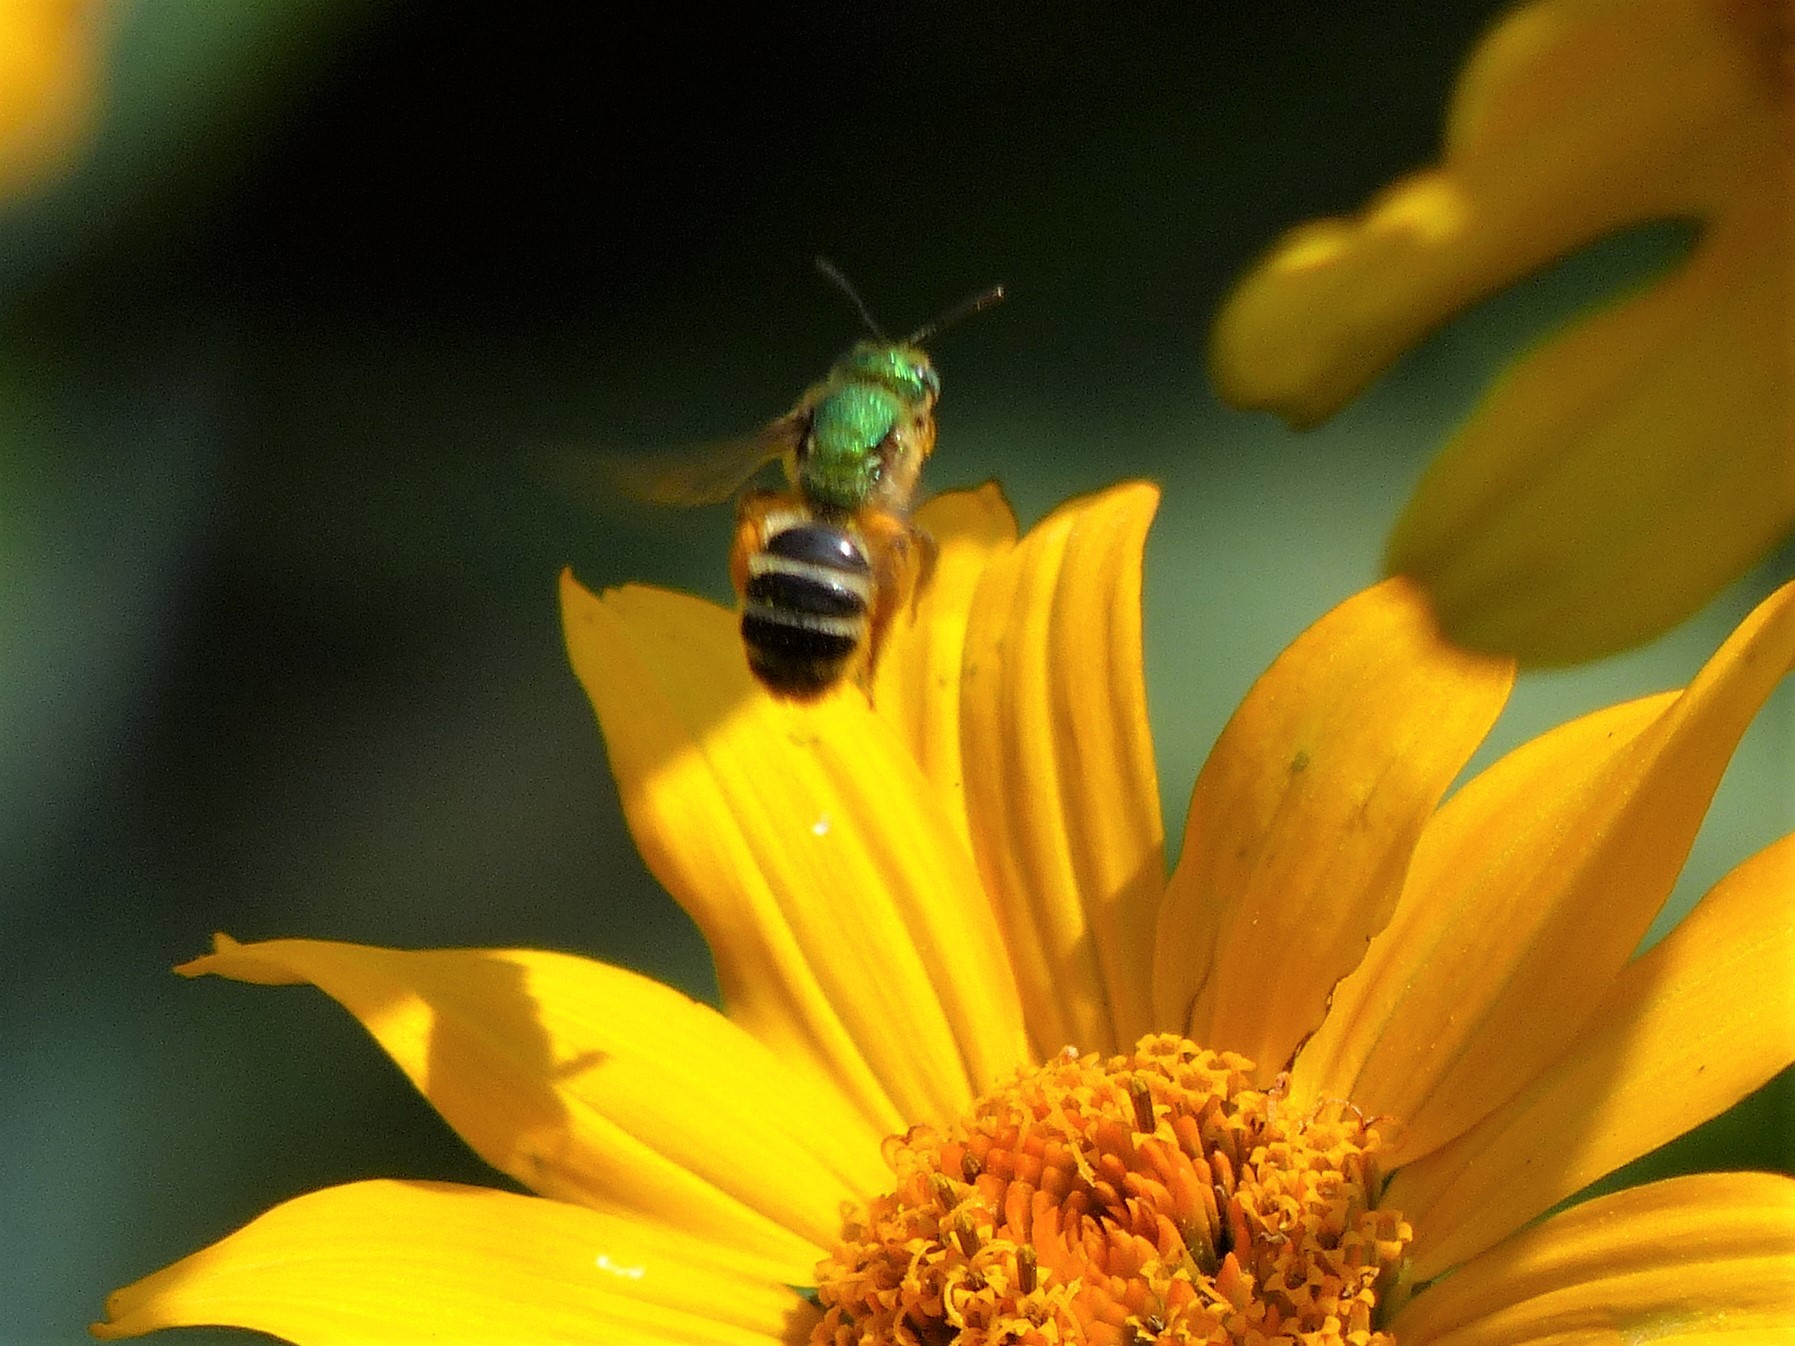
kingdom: Animalia
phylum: Arthropoda
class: Insecta
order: Hymenoptera
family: Halictidae
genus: Agapostemon
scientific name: Agapostemon virescens
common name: Bicolored striped sweat bee
